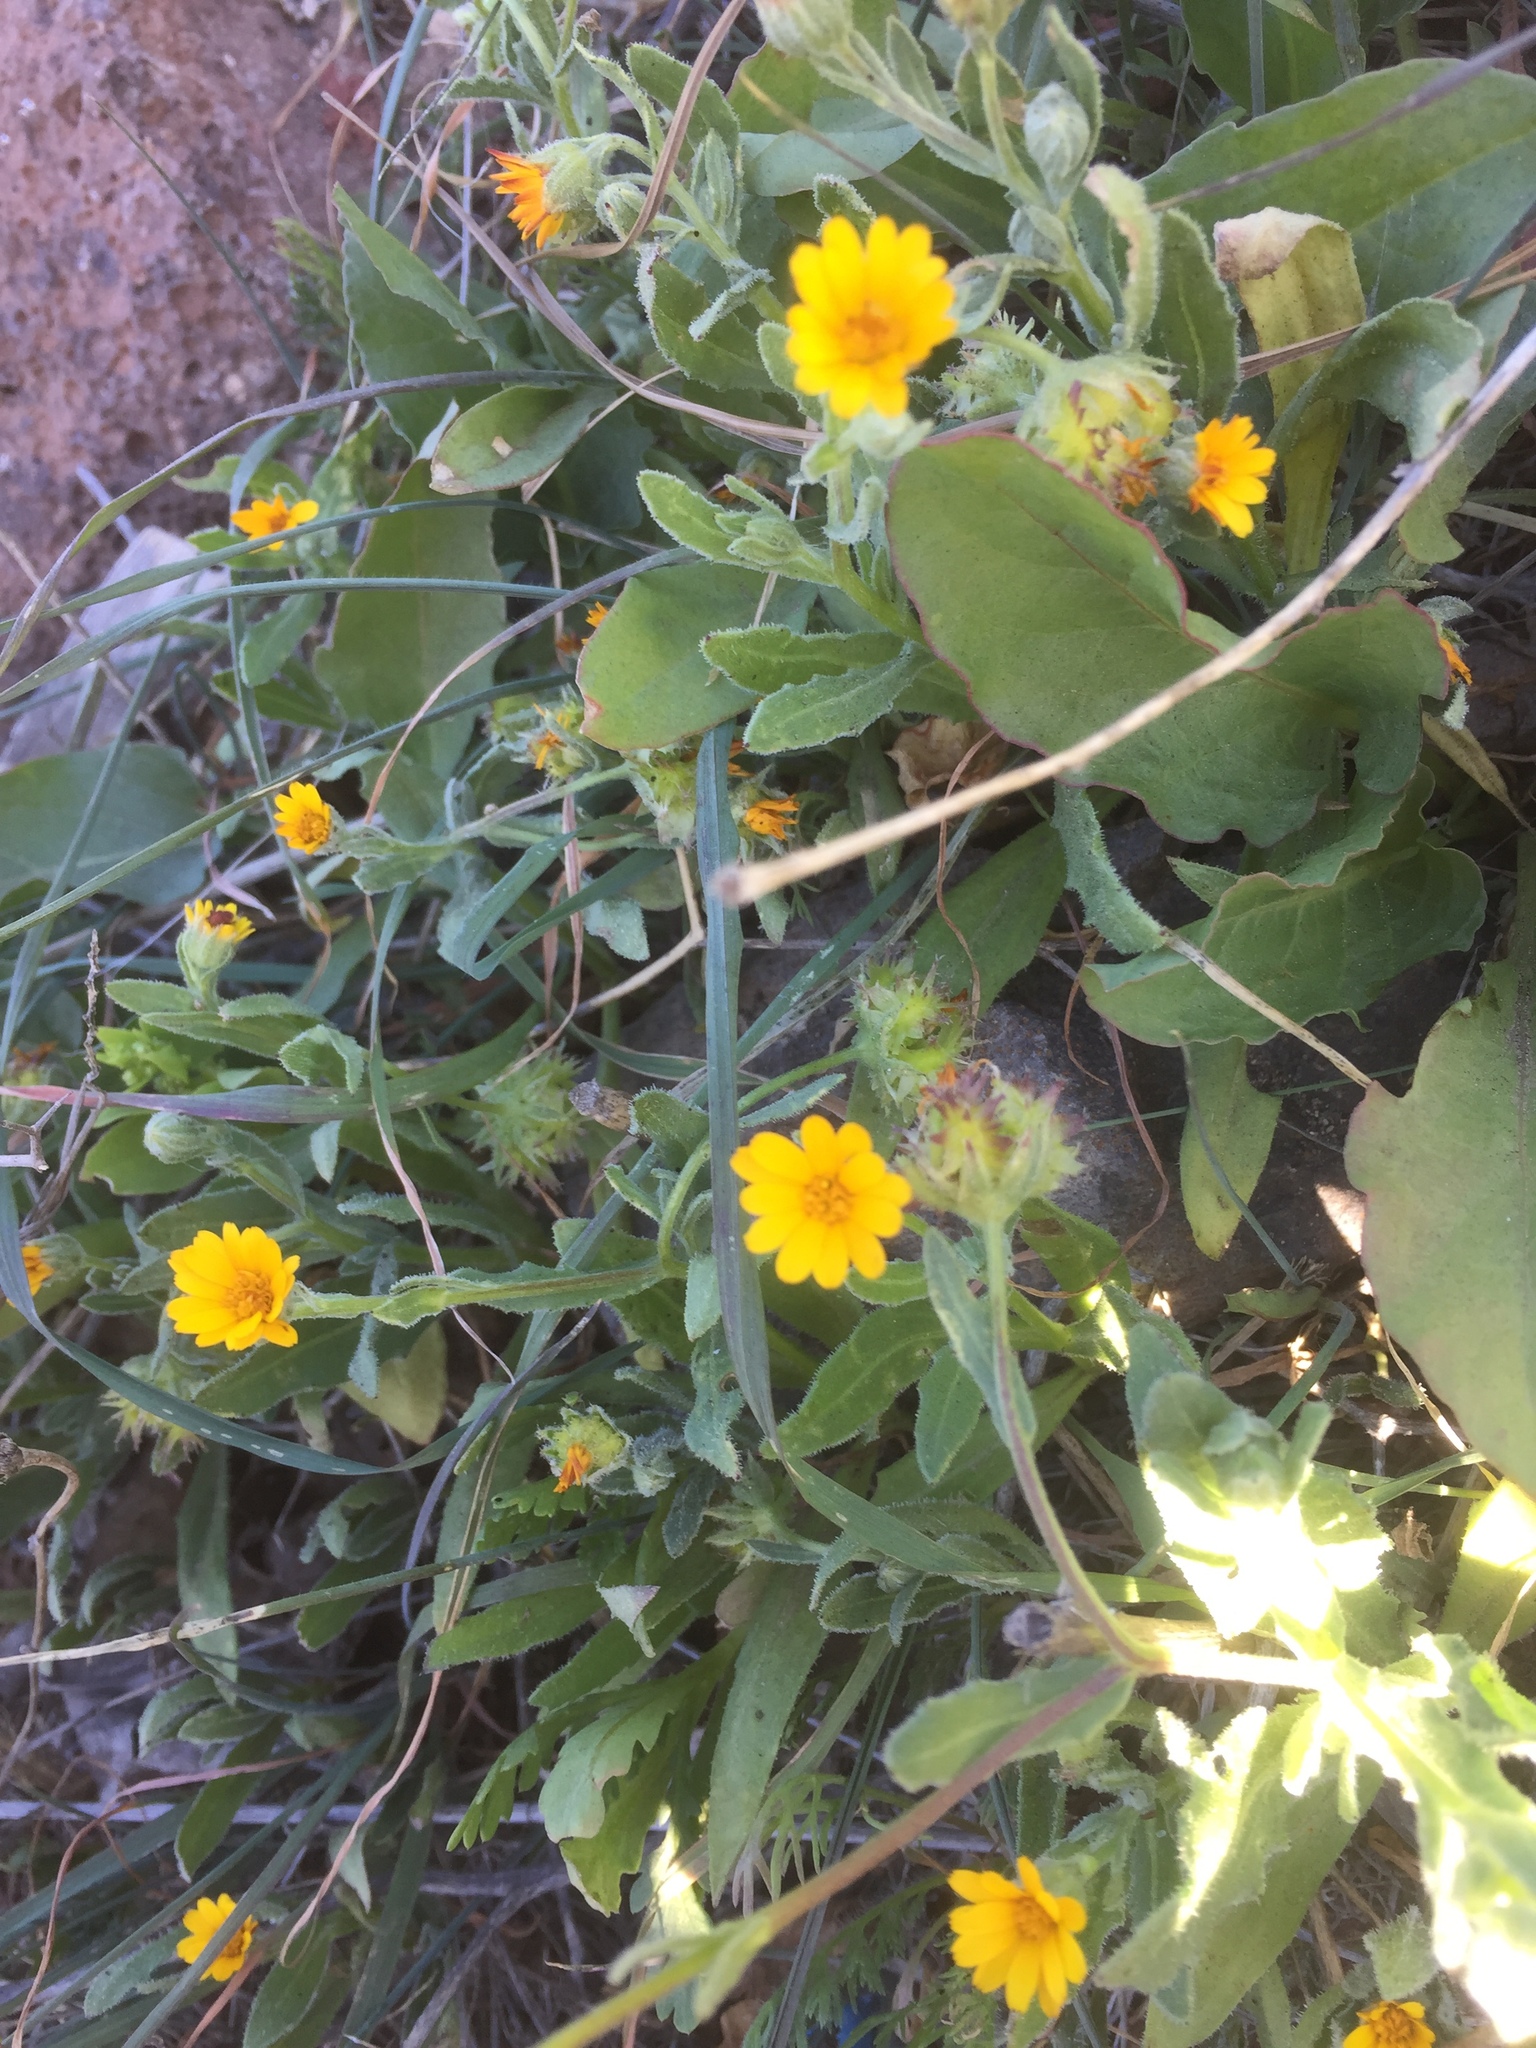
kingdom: Plantae
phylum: Tracheophyta
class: Magnoliopsida
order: Asterales
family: Asteraceae
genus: Calendula
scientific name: Calendula arvensis
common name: Field marigold
